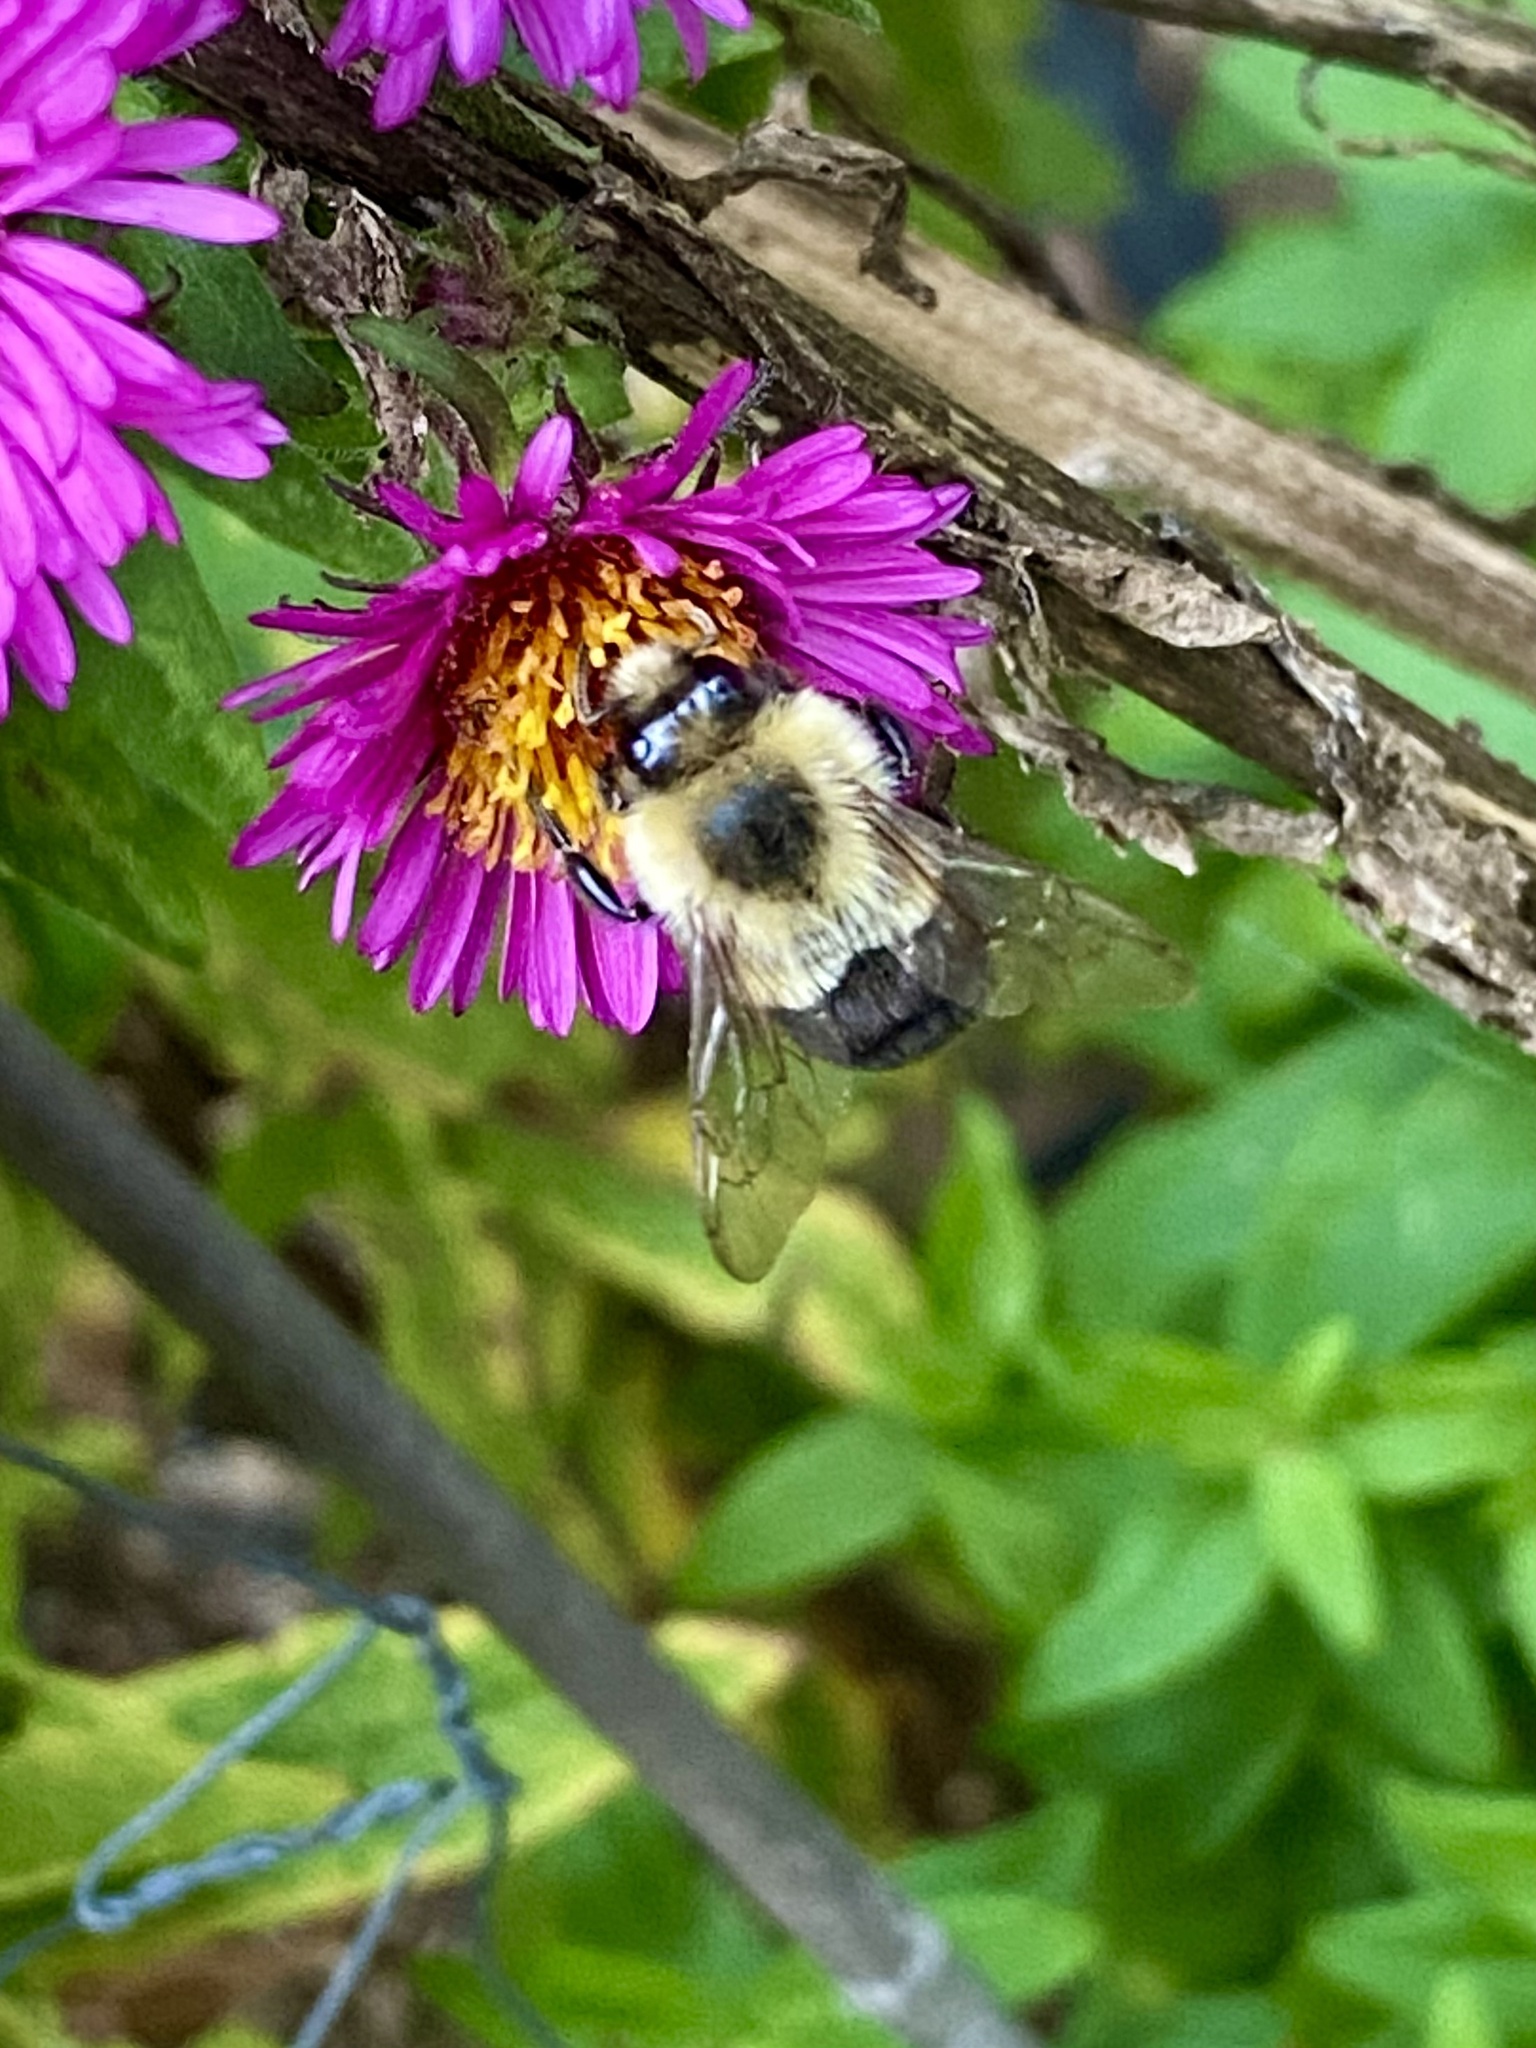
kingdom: Animalia
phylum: Arthropoda
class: Insecta
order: Hymenoptera
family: Apidae
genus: Bombus
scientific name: Bombus impatiens
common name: Common eastern bumble bee
